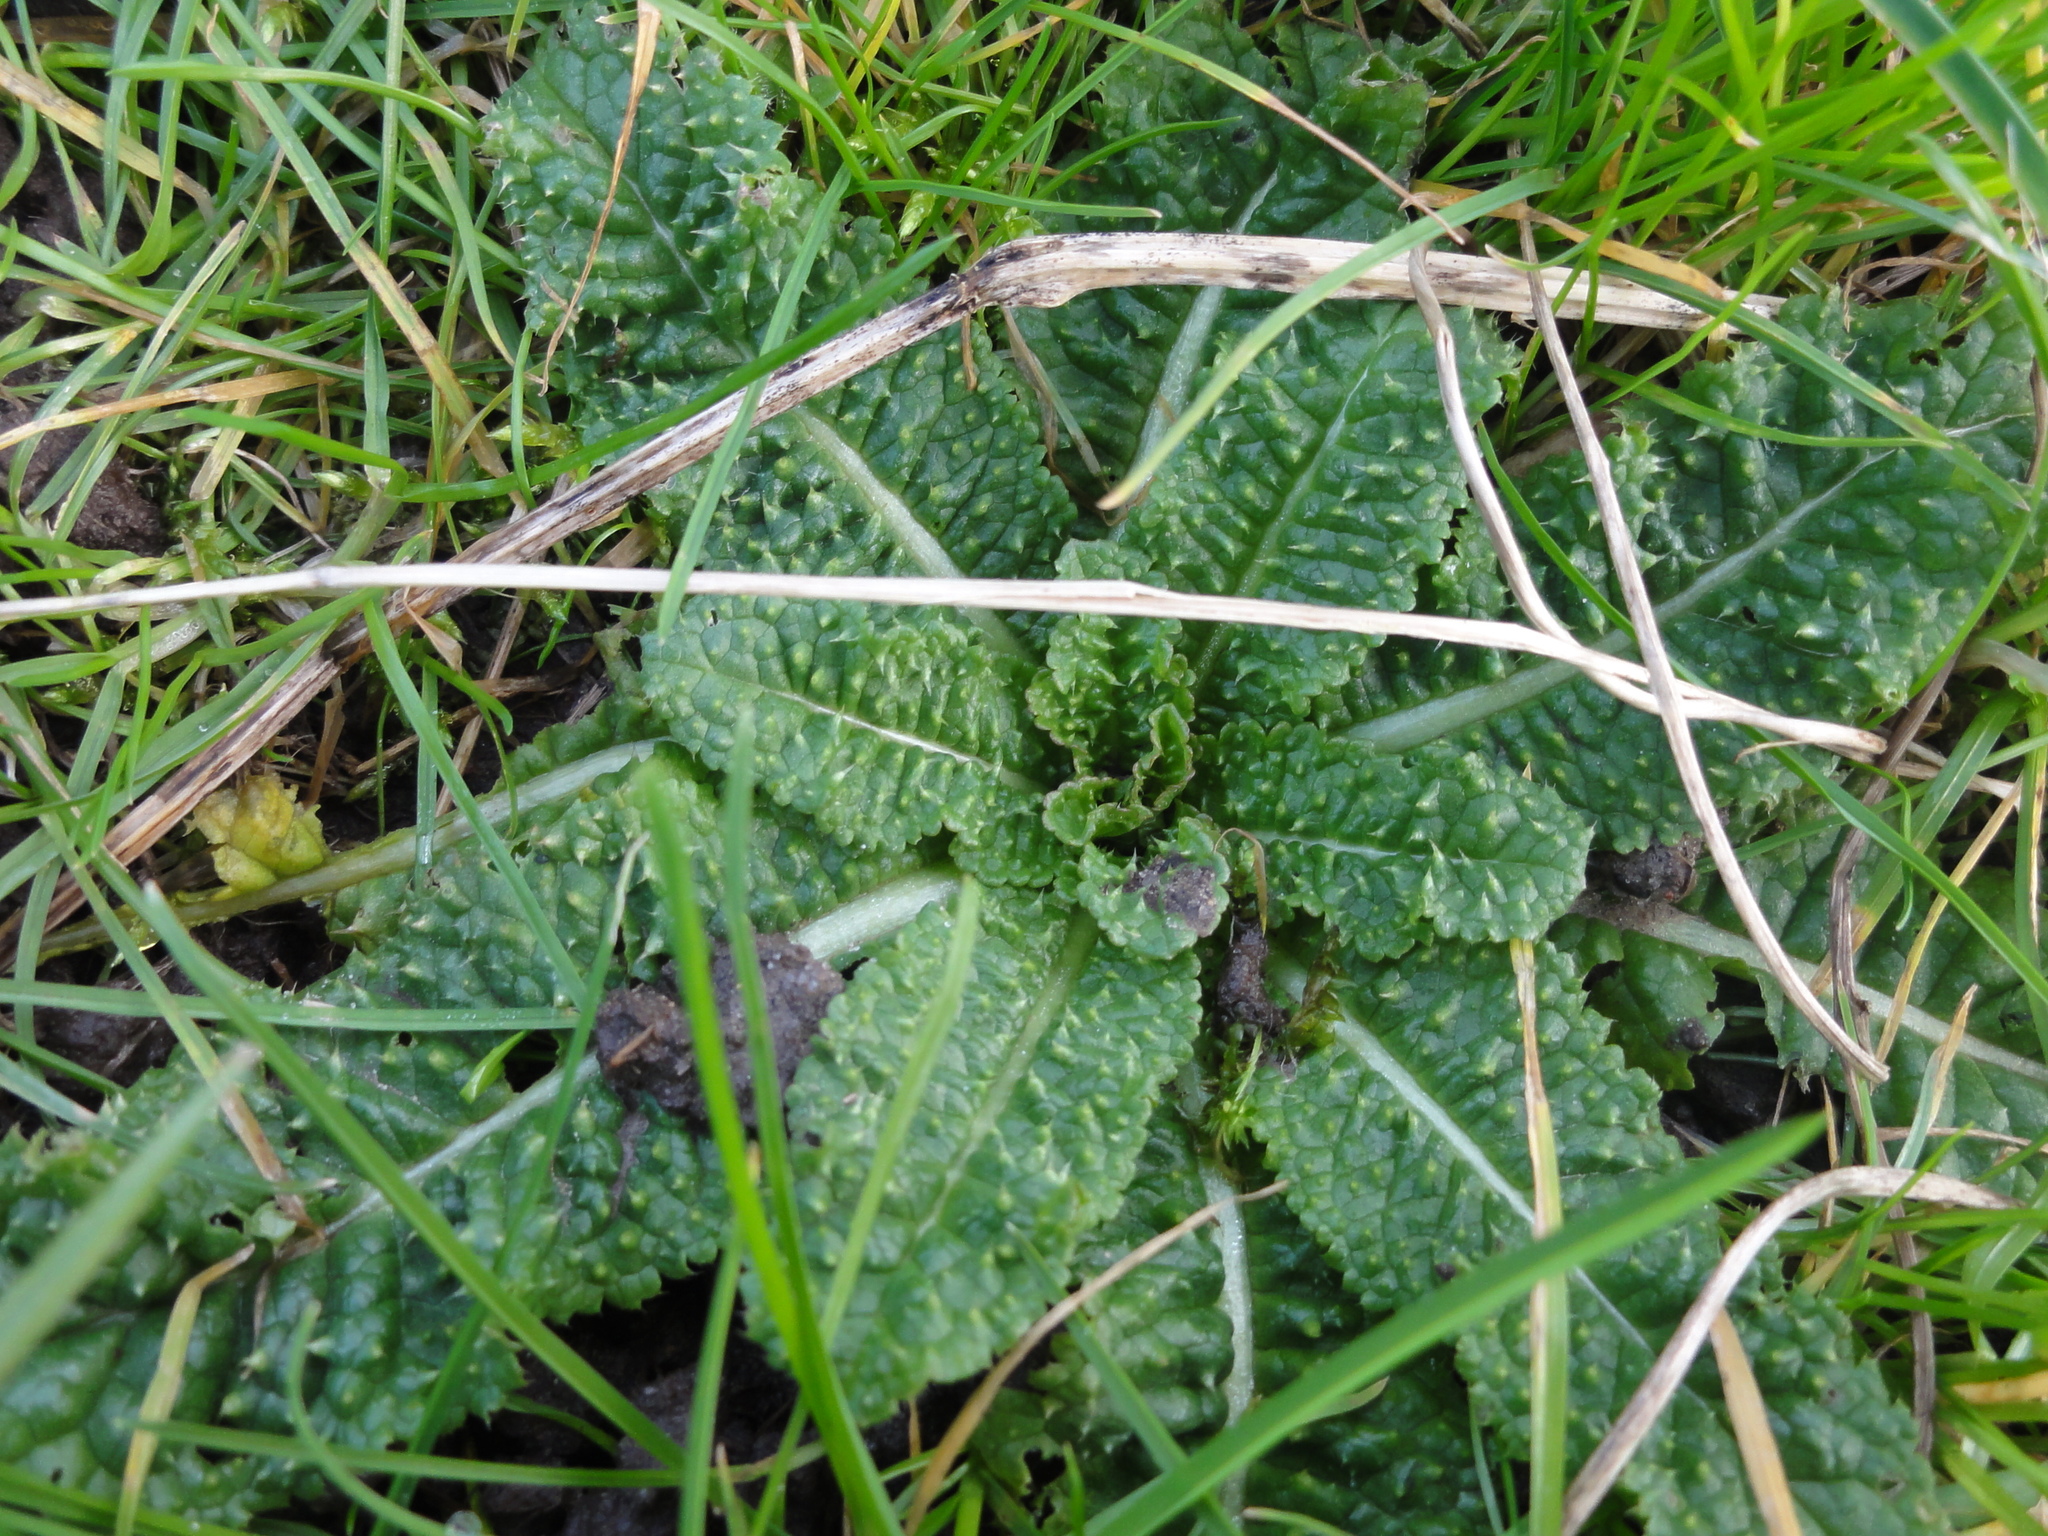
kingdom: Plantae
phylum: Tracheophyta
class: Magnoliopsida
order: Dipsacales
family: Caprifoliaceae
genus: Dipsacus
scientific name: Dipsacus fullonum
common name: Teasel
